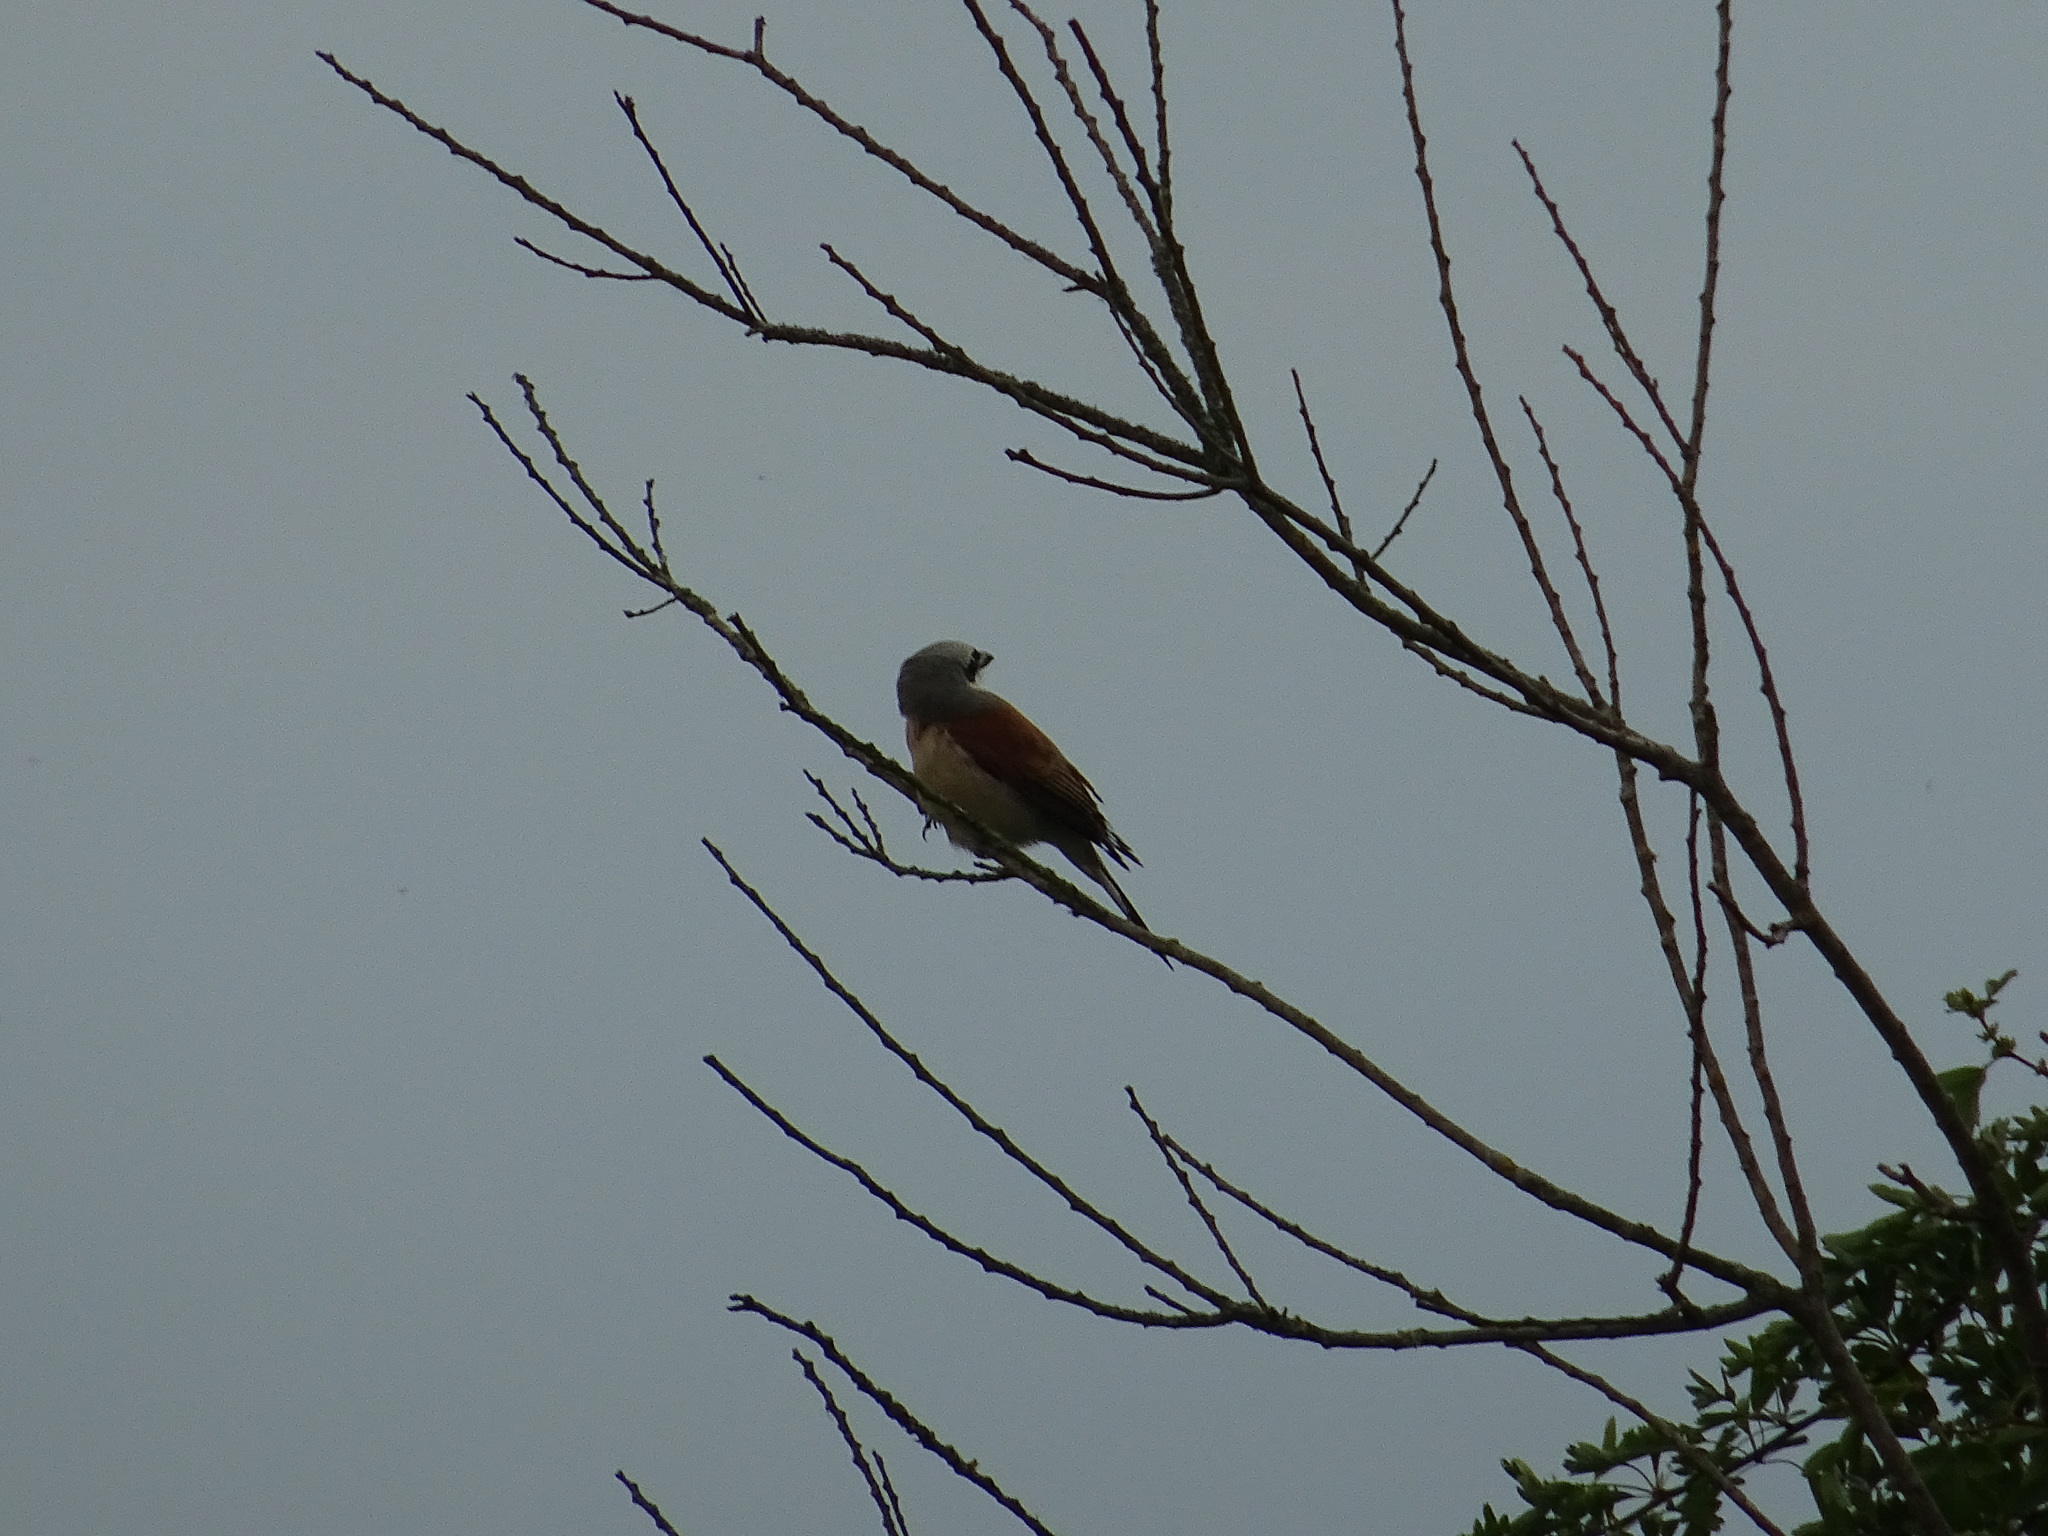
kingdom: Animalia
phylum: Chordata
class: Aves
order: Passeriformes
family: Laniidae
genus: Lanius
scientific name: Lanius collurio
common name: Red-backed shrike
